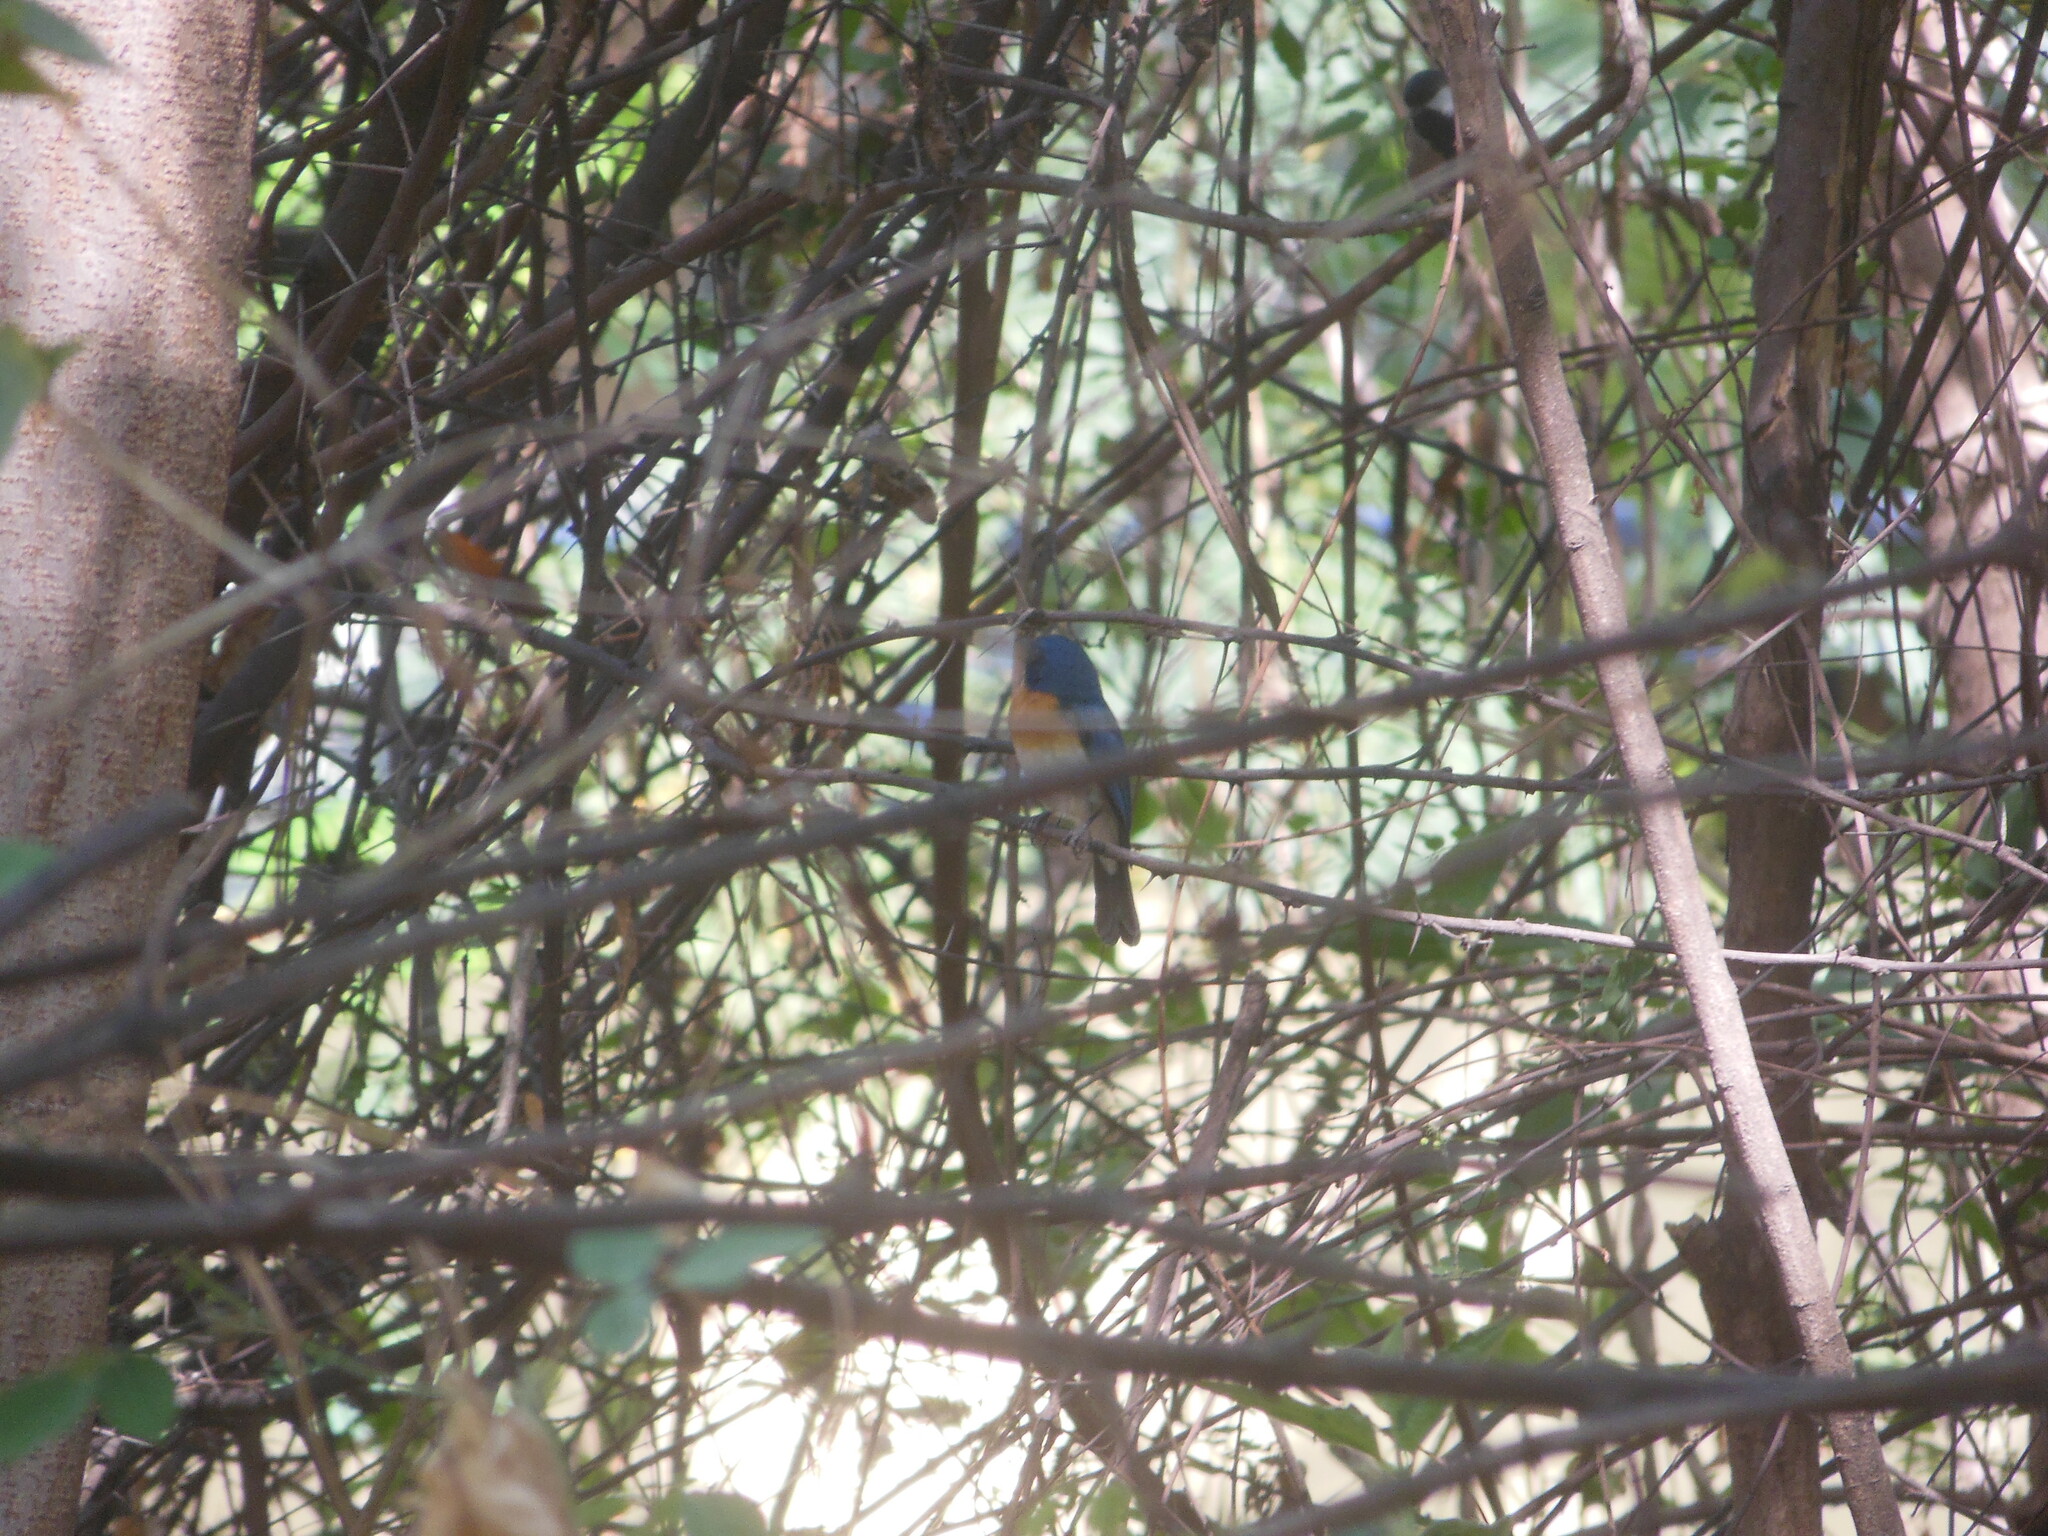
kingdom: Animalia
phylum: Chordata
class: Aves
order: Passeriformes
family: Muscicapidae
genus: Cyornis
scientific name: Cyornis tickelliae
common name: Tickell's blue flycatcher
